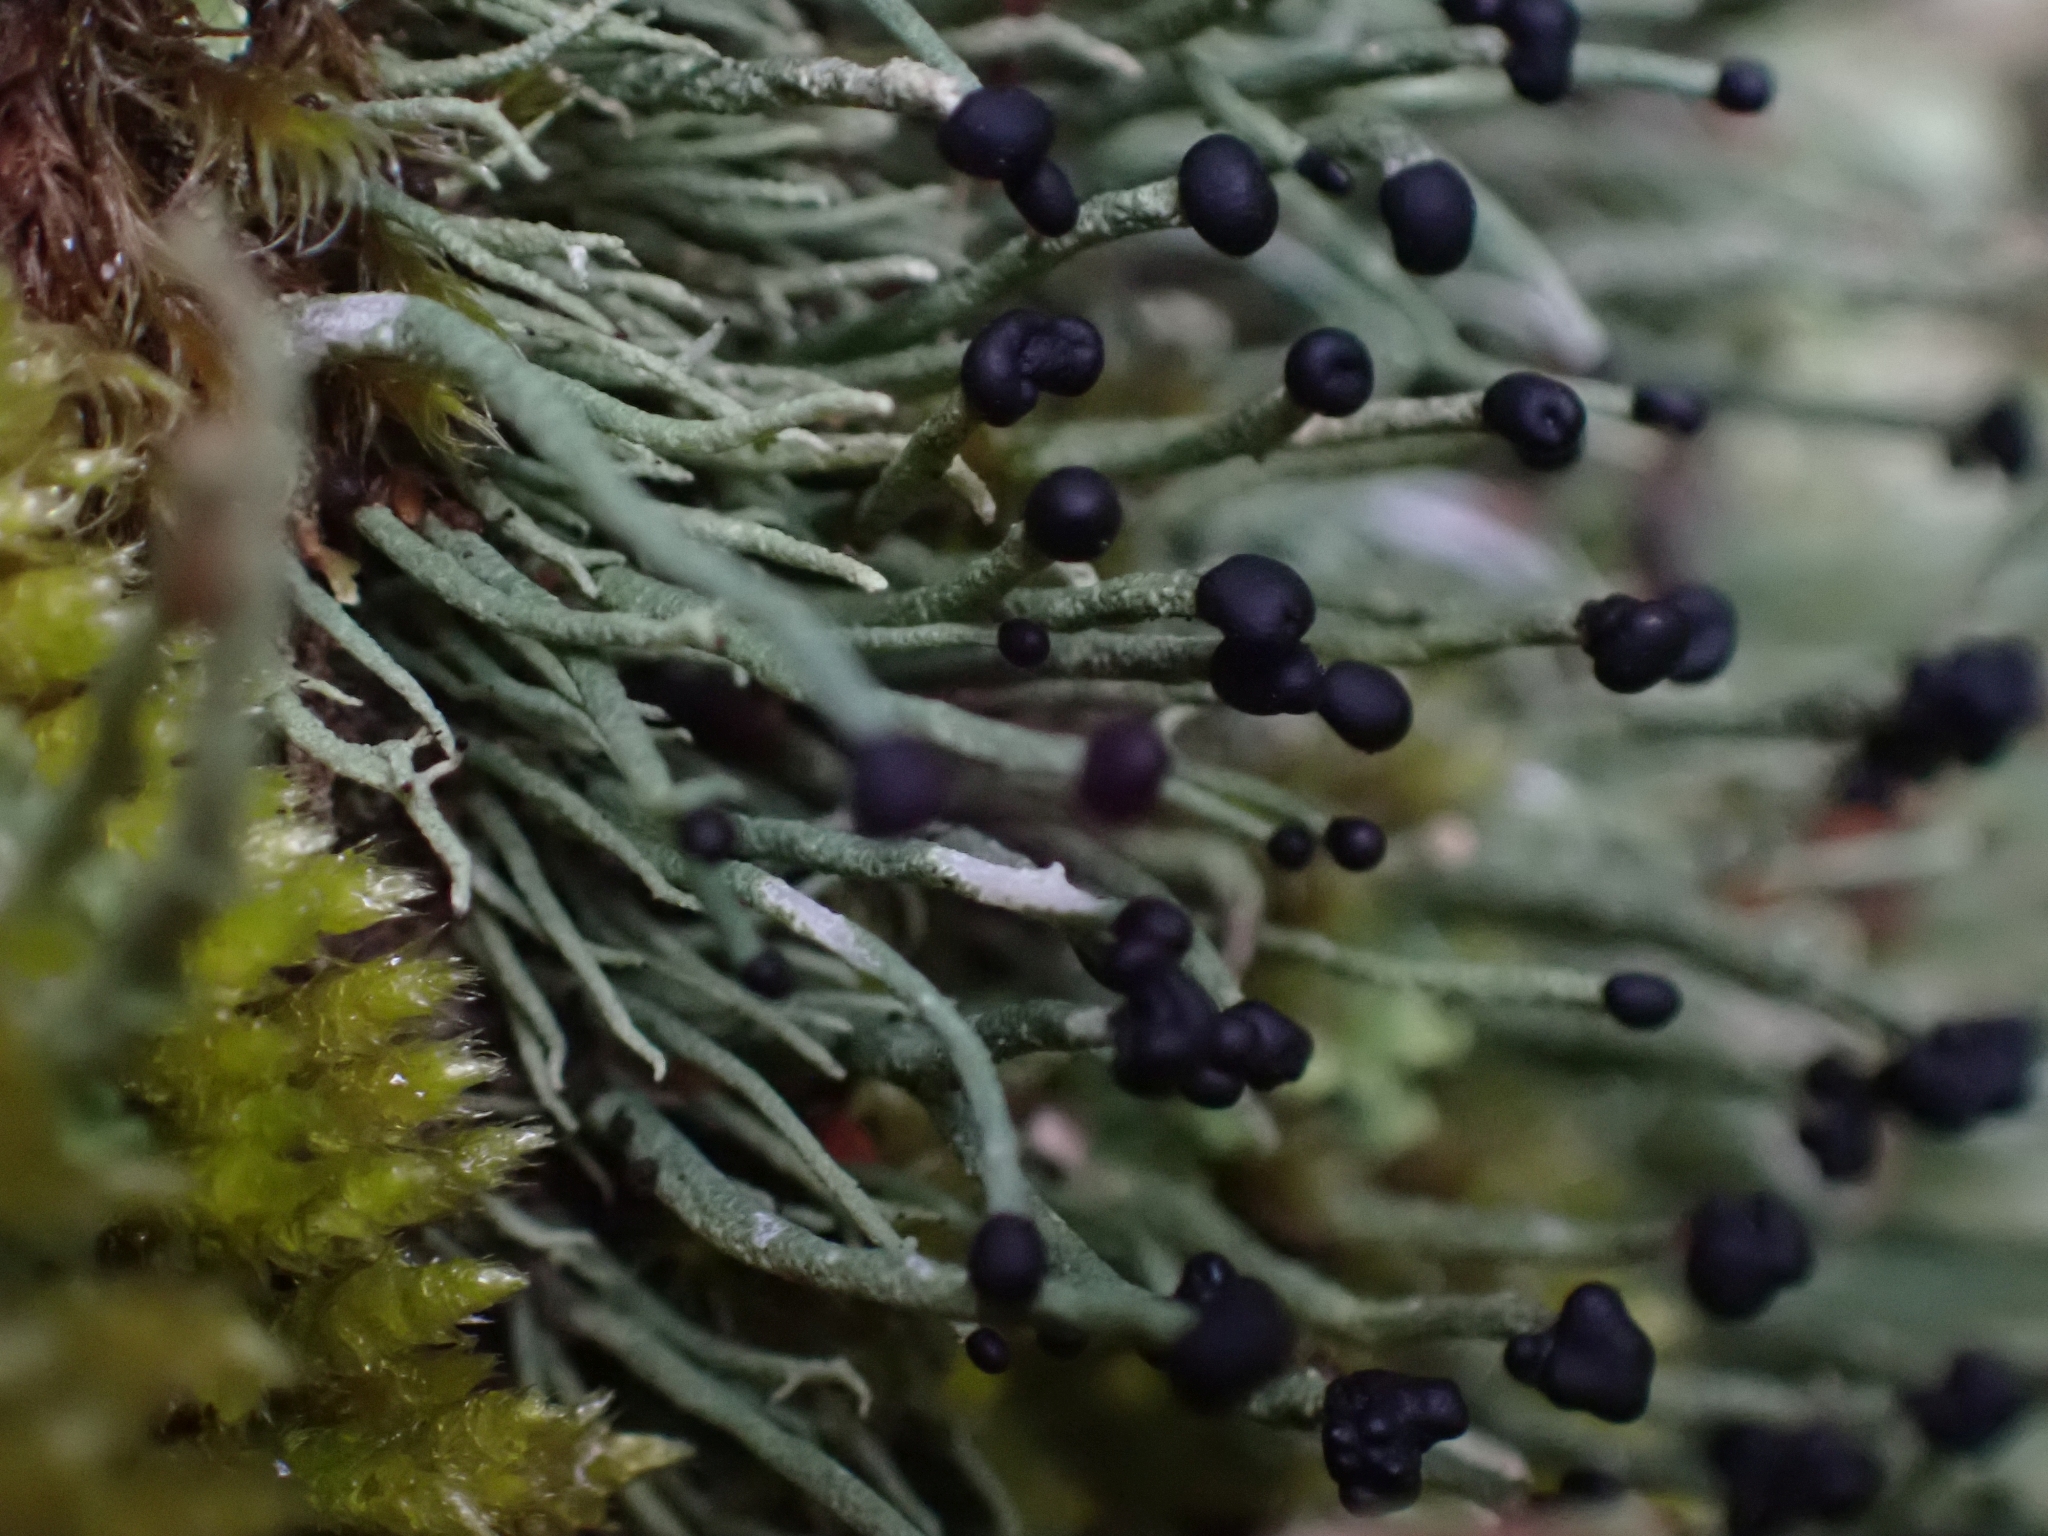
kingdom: Fungi
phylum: Ascomycota
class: Lecanoromycetes
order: Lecanorales
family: Cladoniaceae
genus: Pilophorus
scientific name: Pilophorus acicularis
